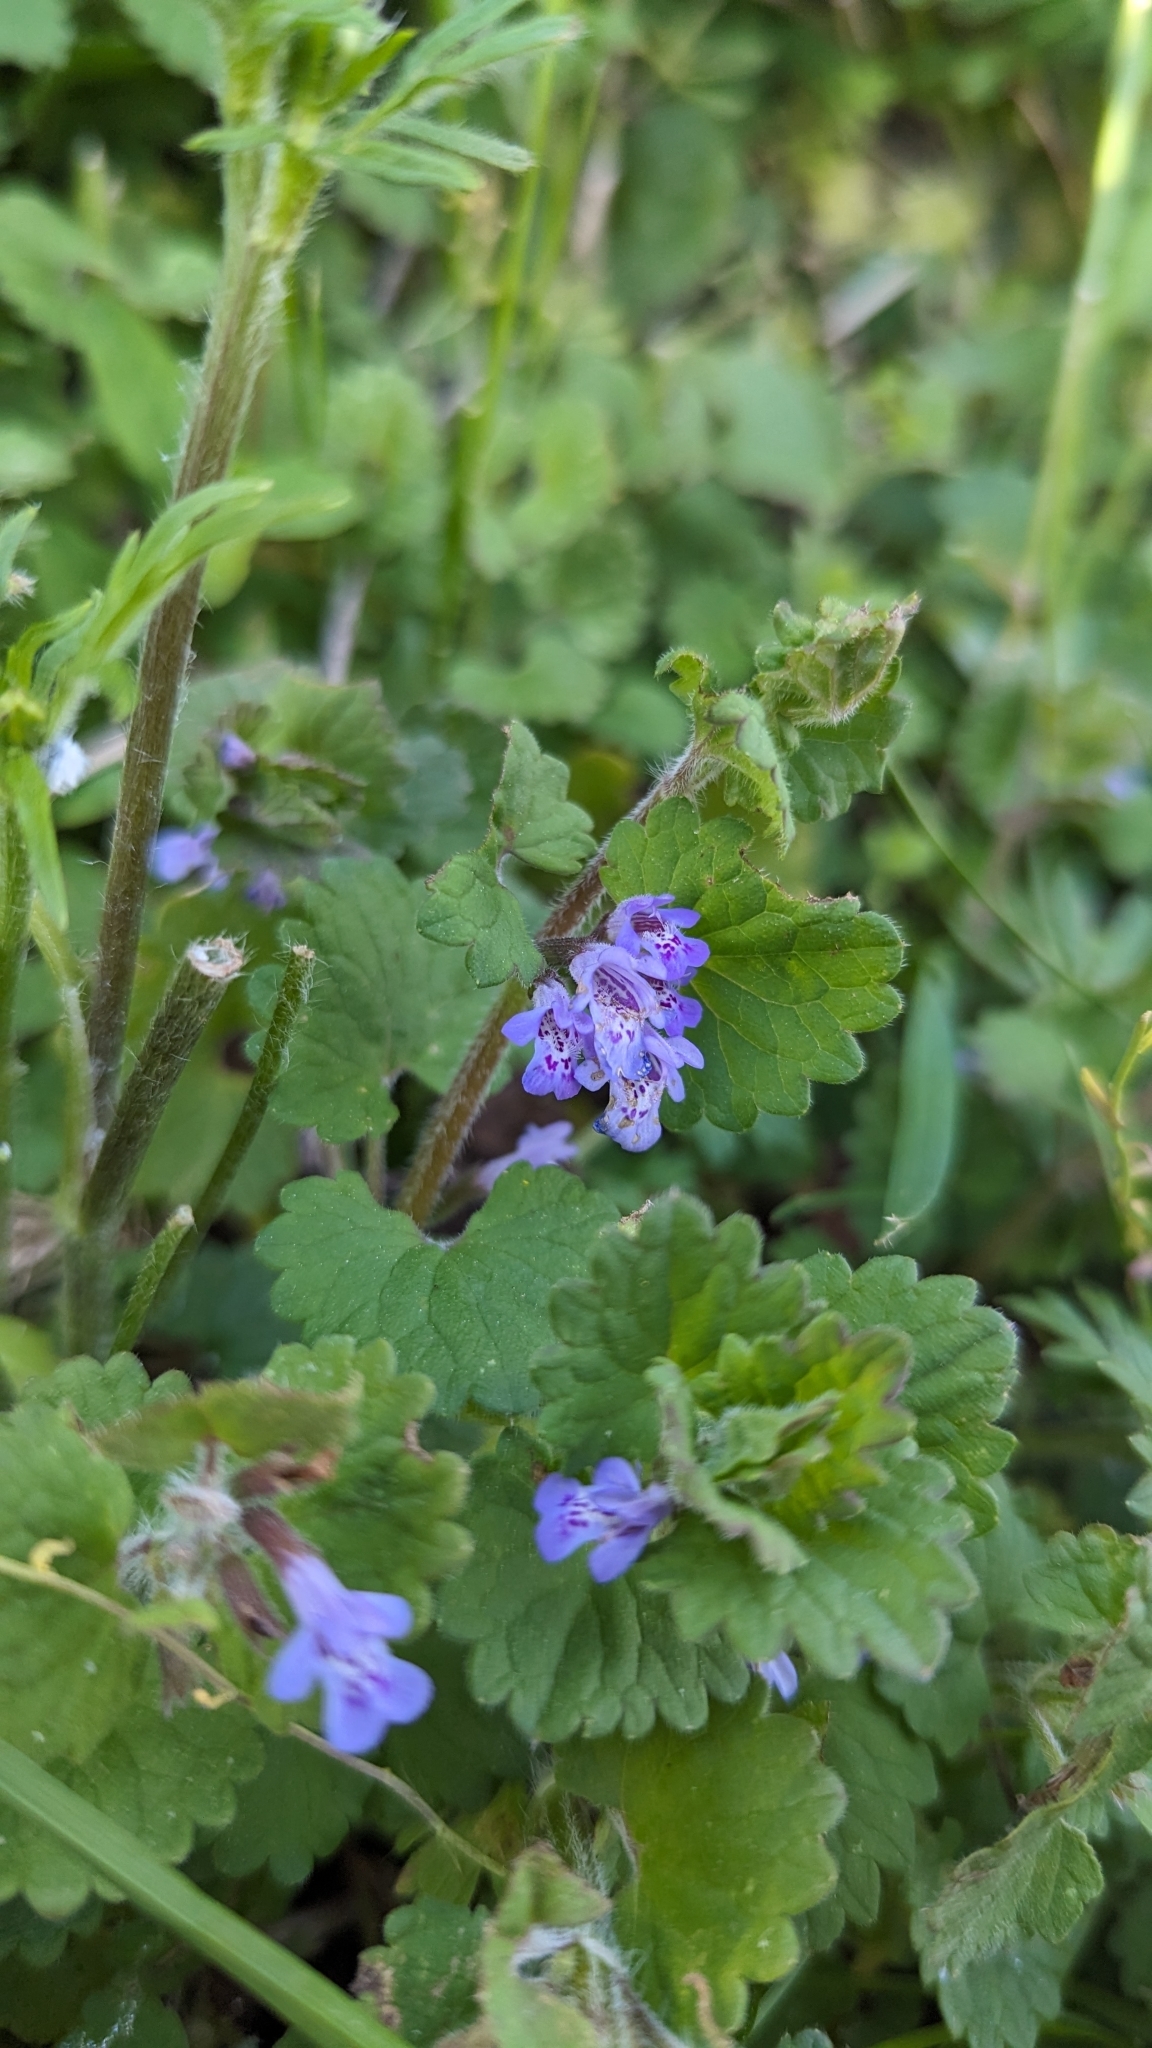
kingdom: Plantae
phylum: Tracheophyta
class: Magnoliopsida
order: Lamiales
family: Lamiaceae
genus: Glechoma
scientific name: Glechoma hederacea
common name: Ground ivy
